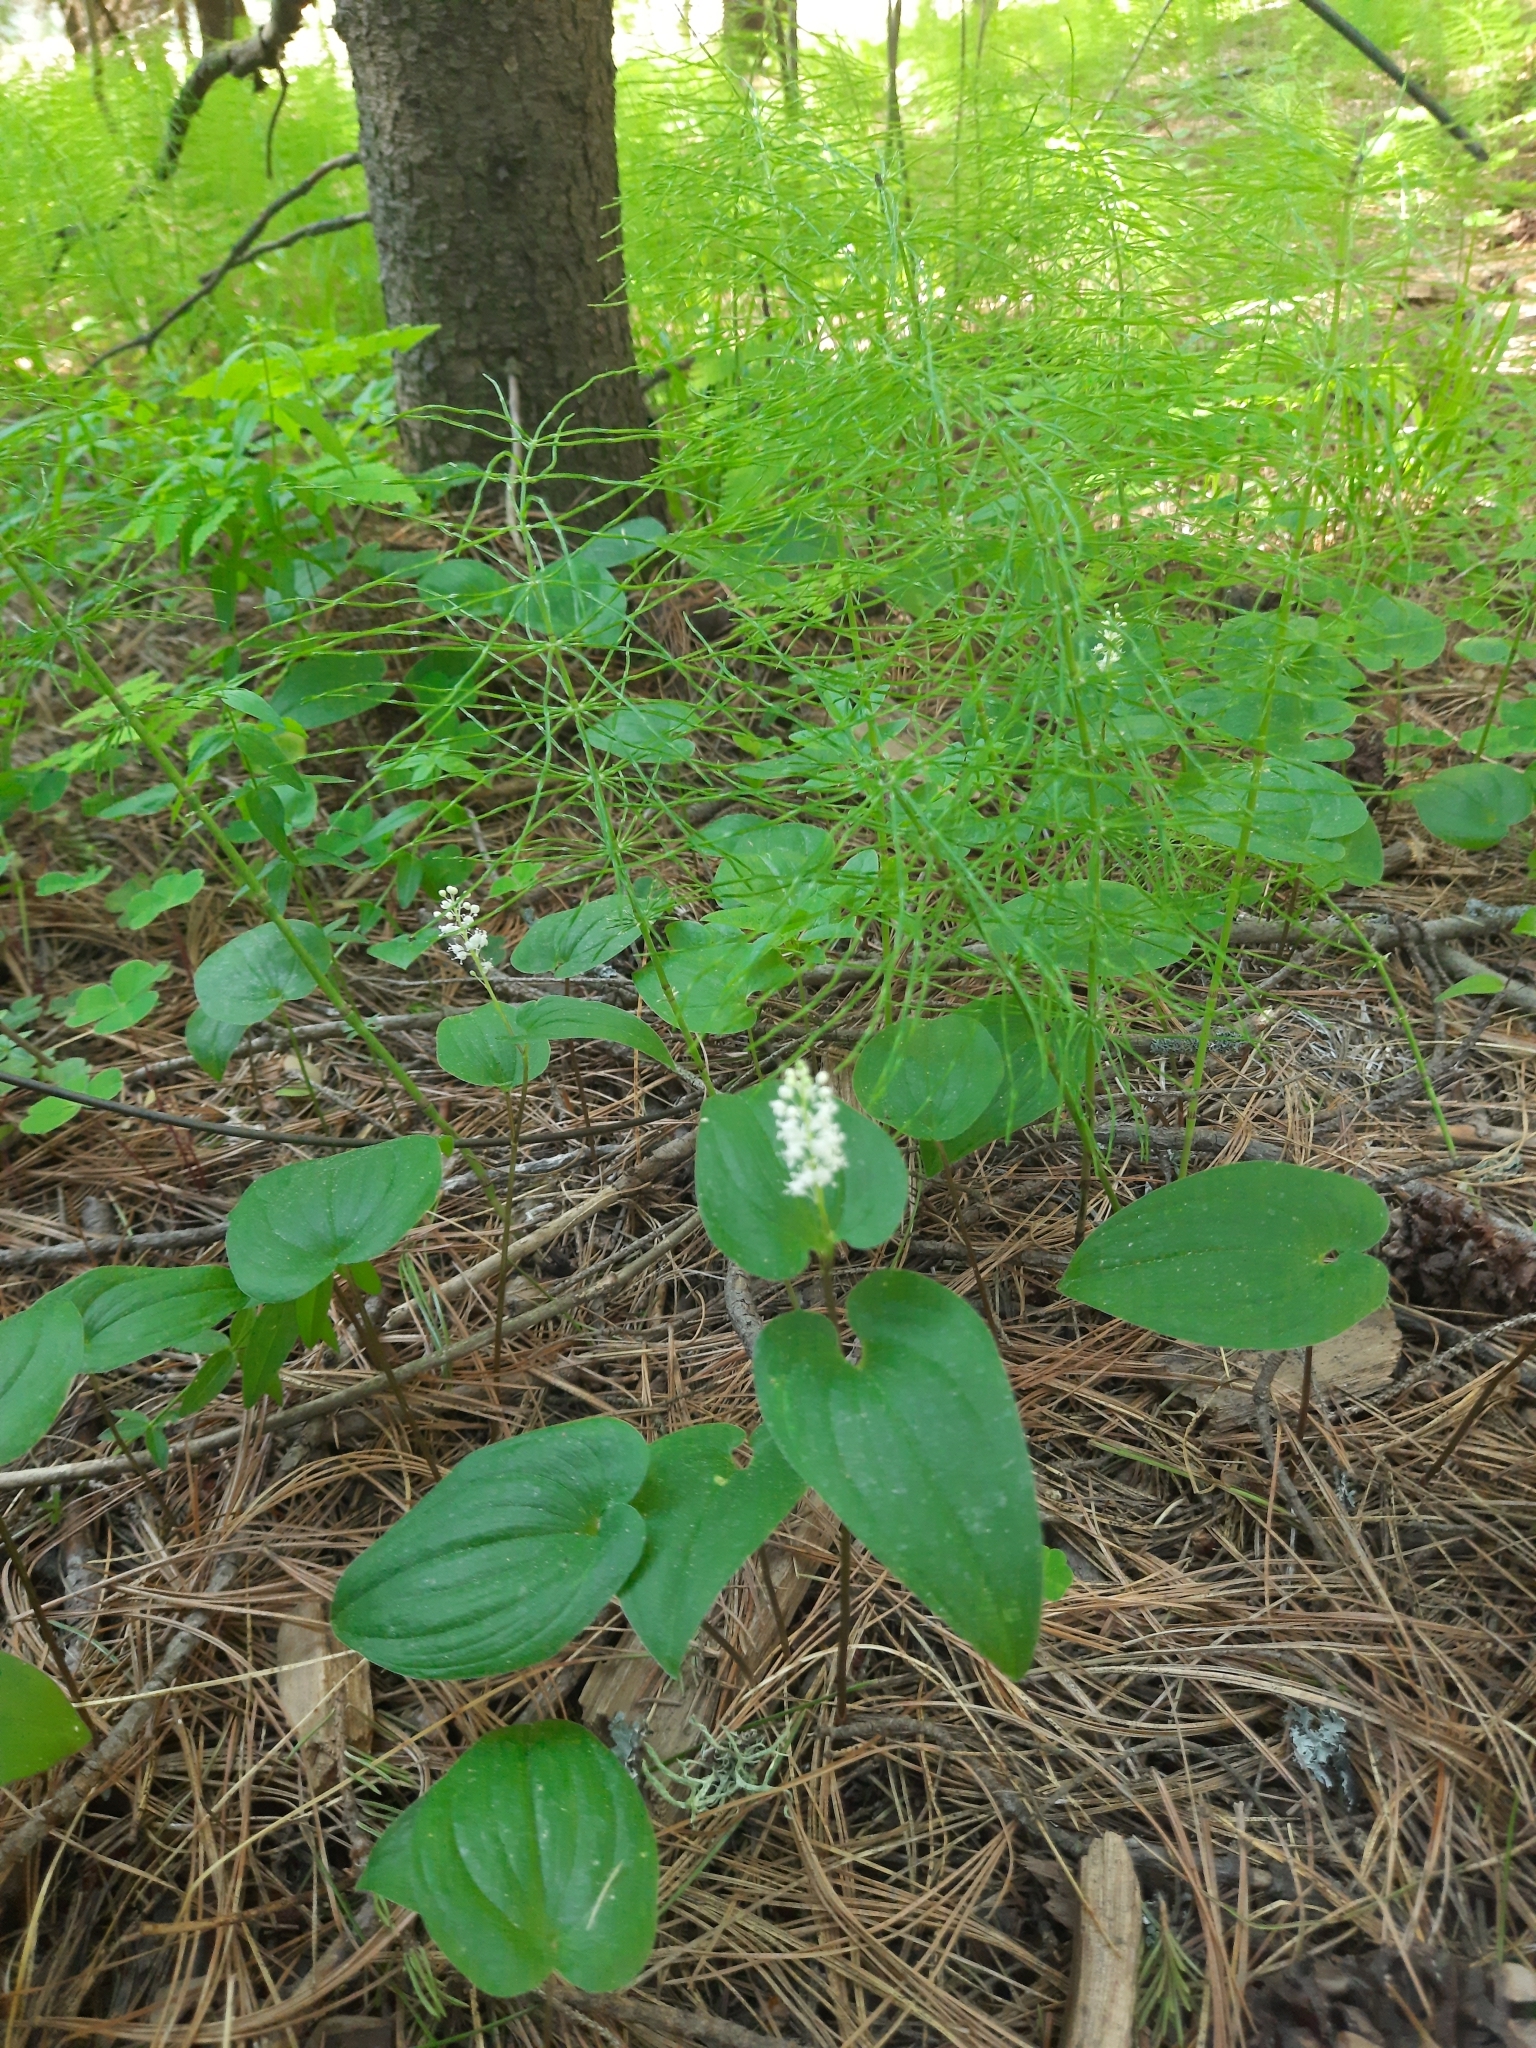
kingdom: Plantae
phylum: Tracheophyta
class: Liliopsida
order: Asparagales
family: Asparagaceae
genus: Maianthemum
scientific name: Maianthemum bifolium
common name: May lily
